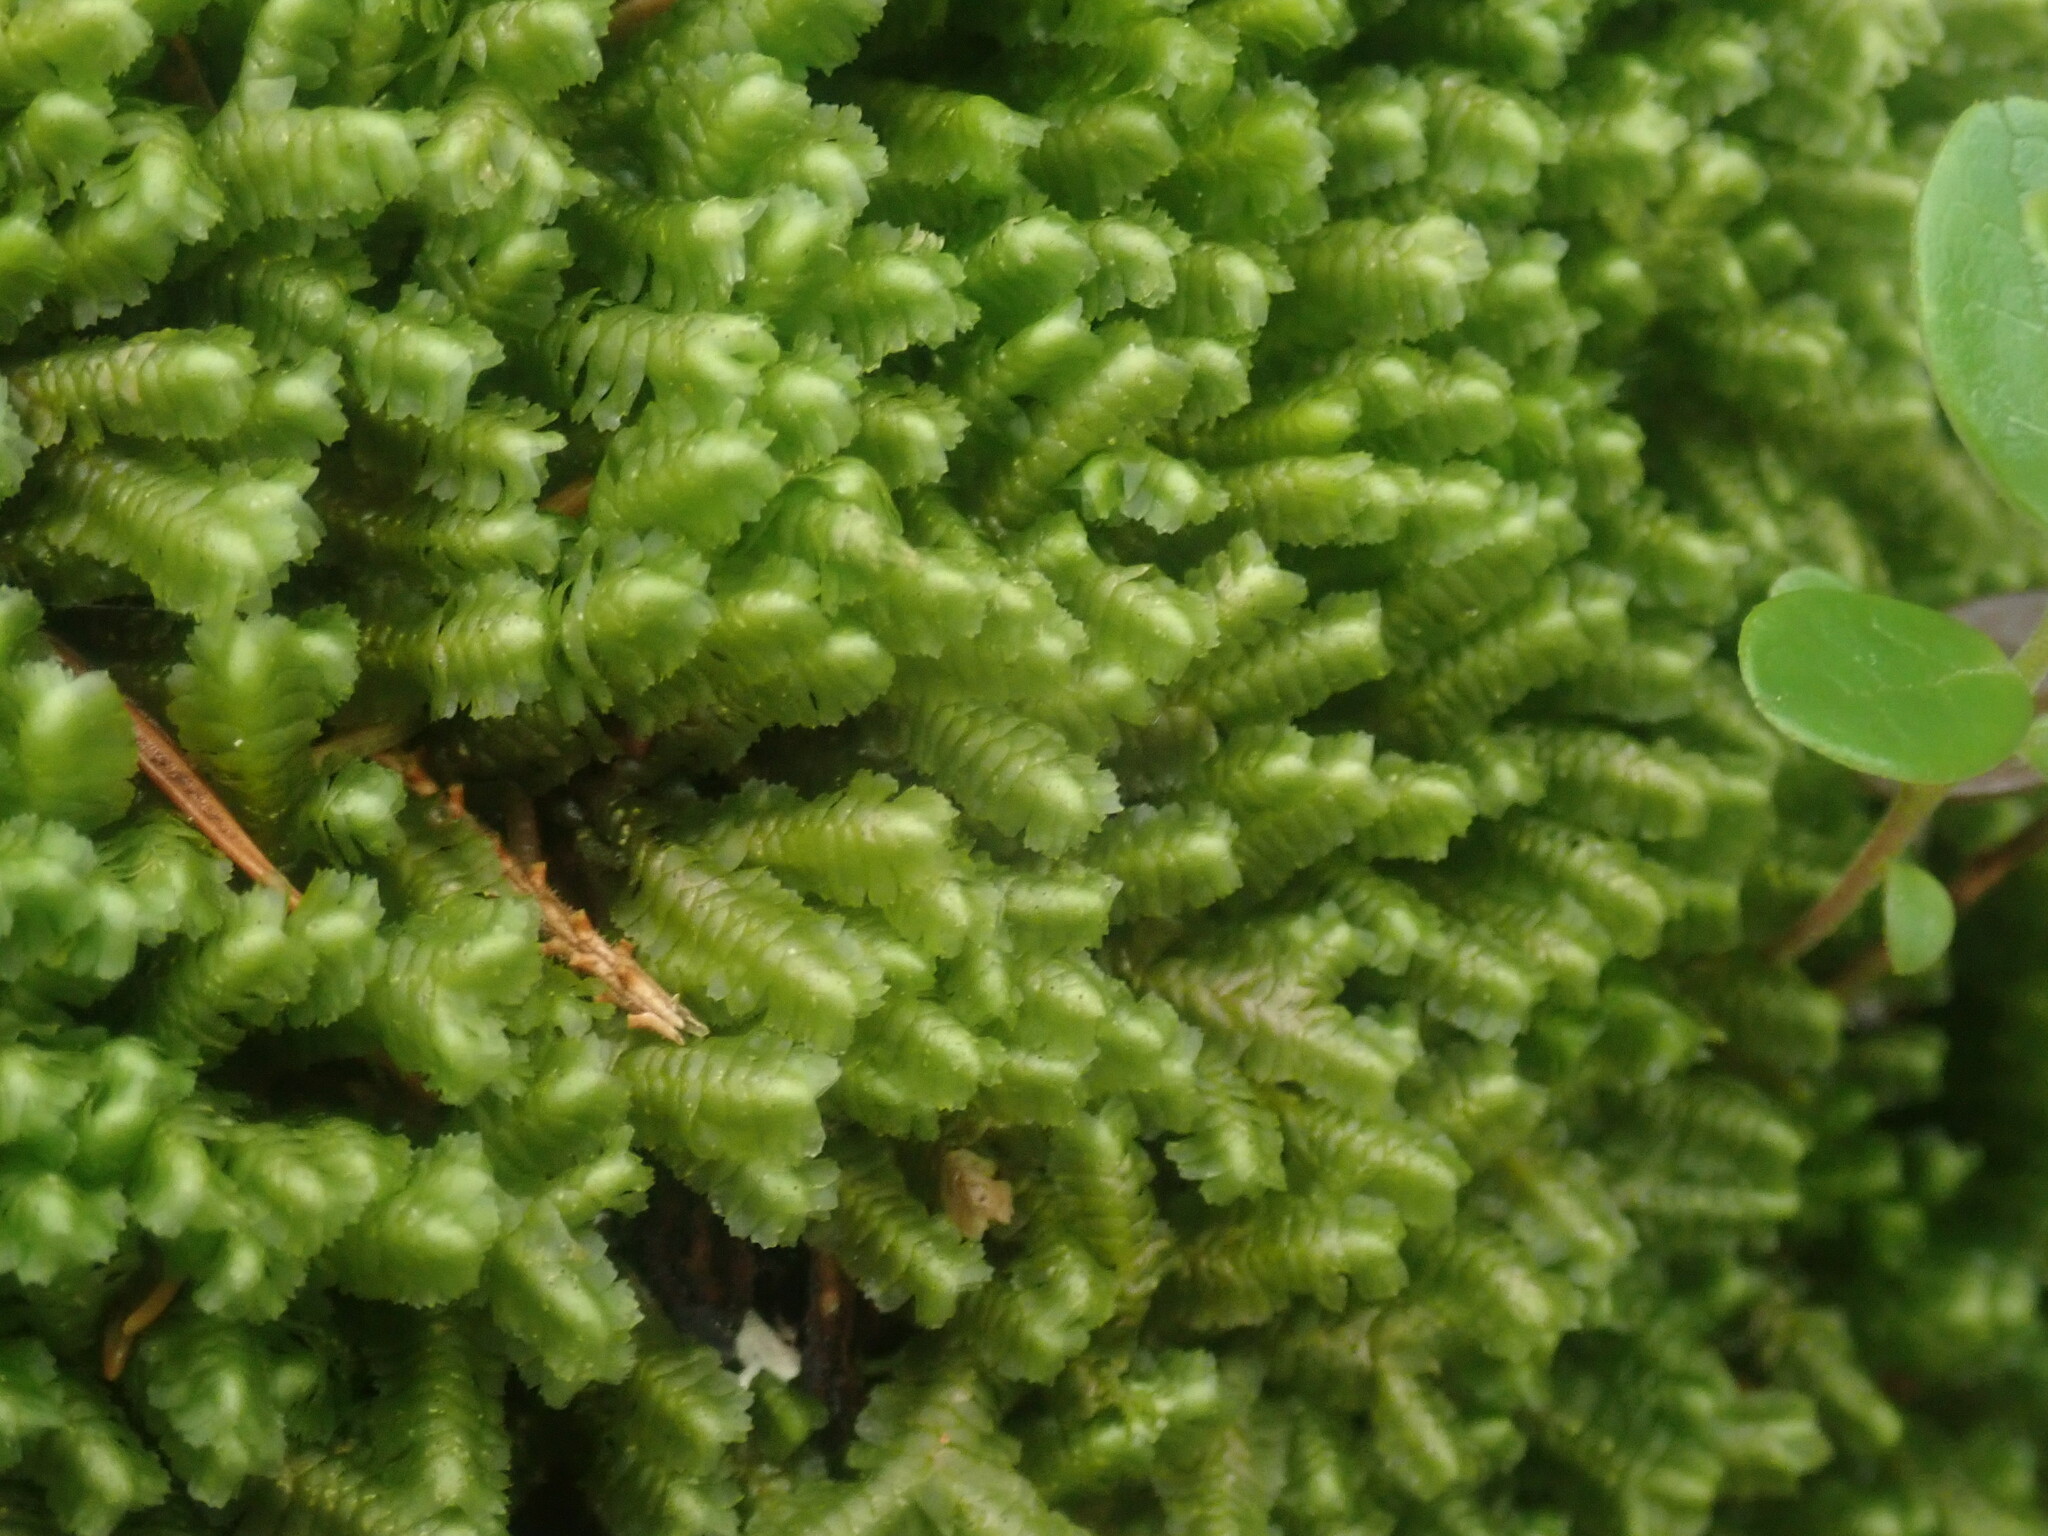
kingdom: Plantae
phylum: Marchantiophyta
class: Jungermanniopsida
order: Jungermanniales
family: Lepidoziaceae
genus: Bazzania
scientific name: Bazzania trilobata
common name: Three-lobed whipwort
